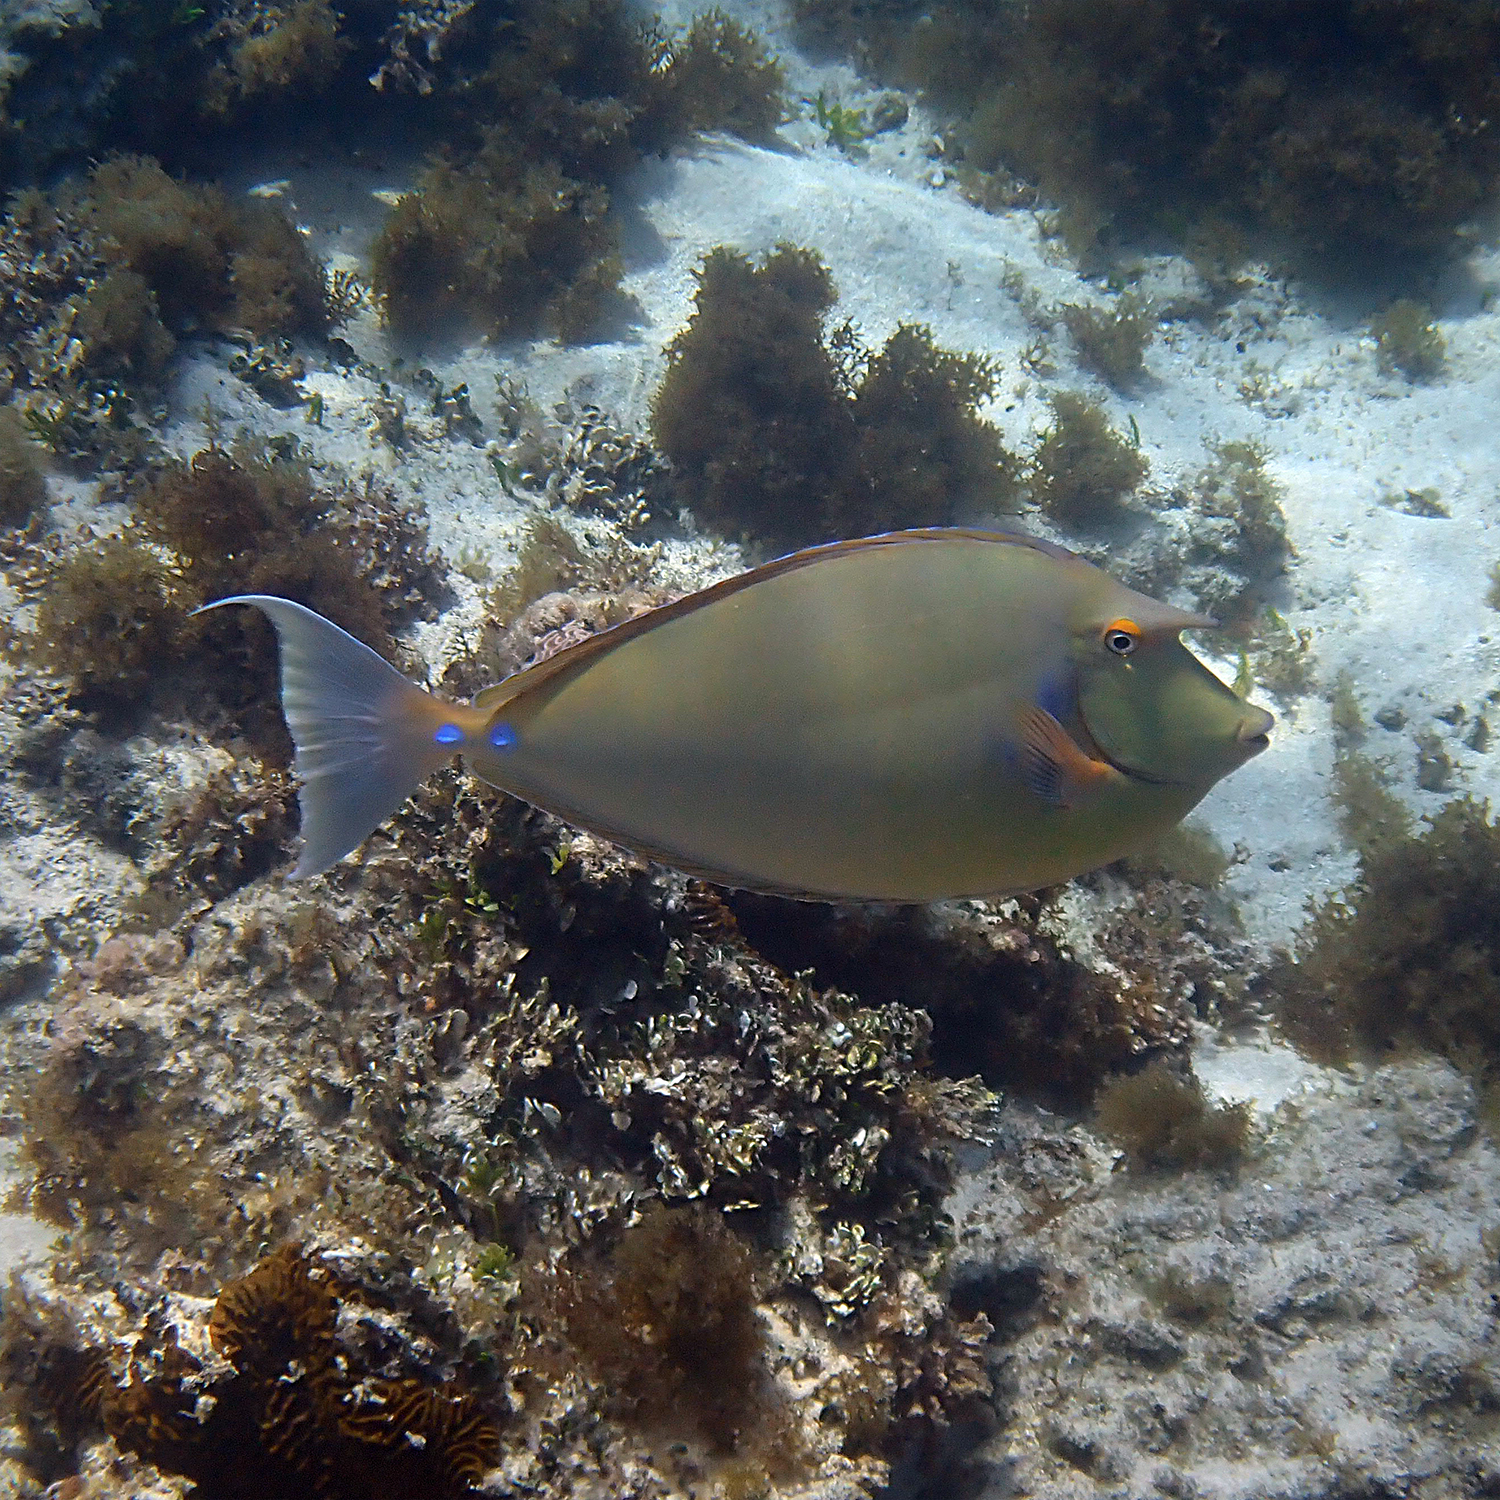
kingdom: Animalia
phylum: Chordata
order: Perciformes
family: Acanthuridae
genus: Naso
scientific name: Naso unicornis
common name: Bluespine unicornfish
